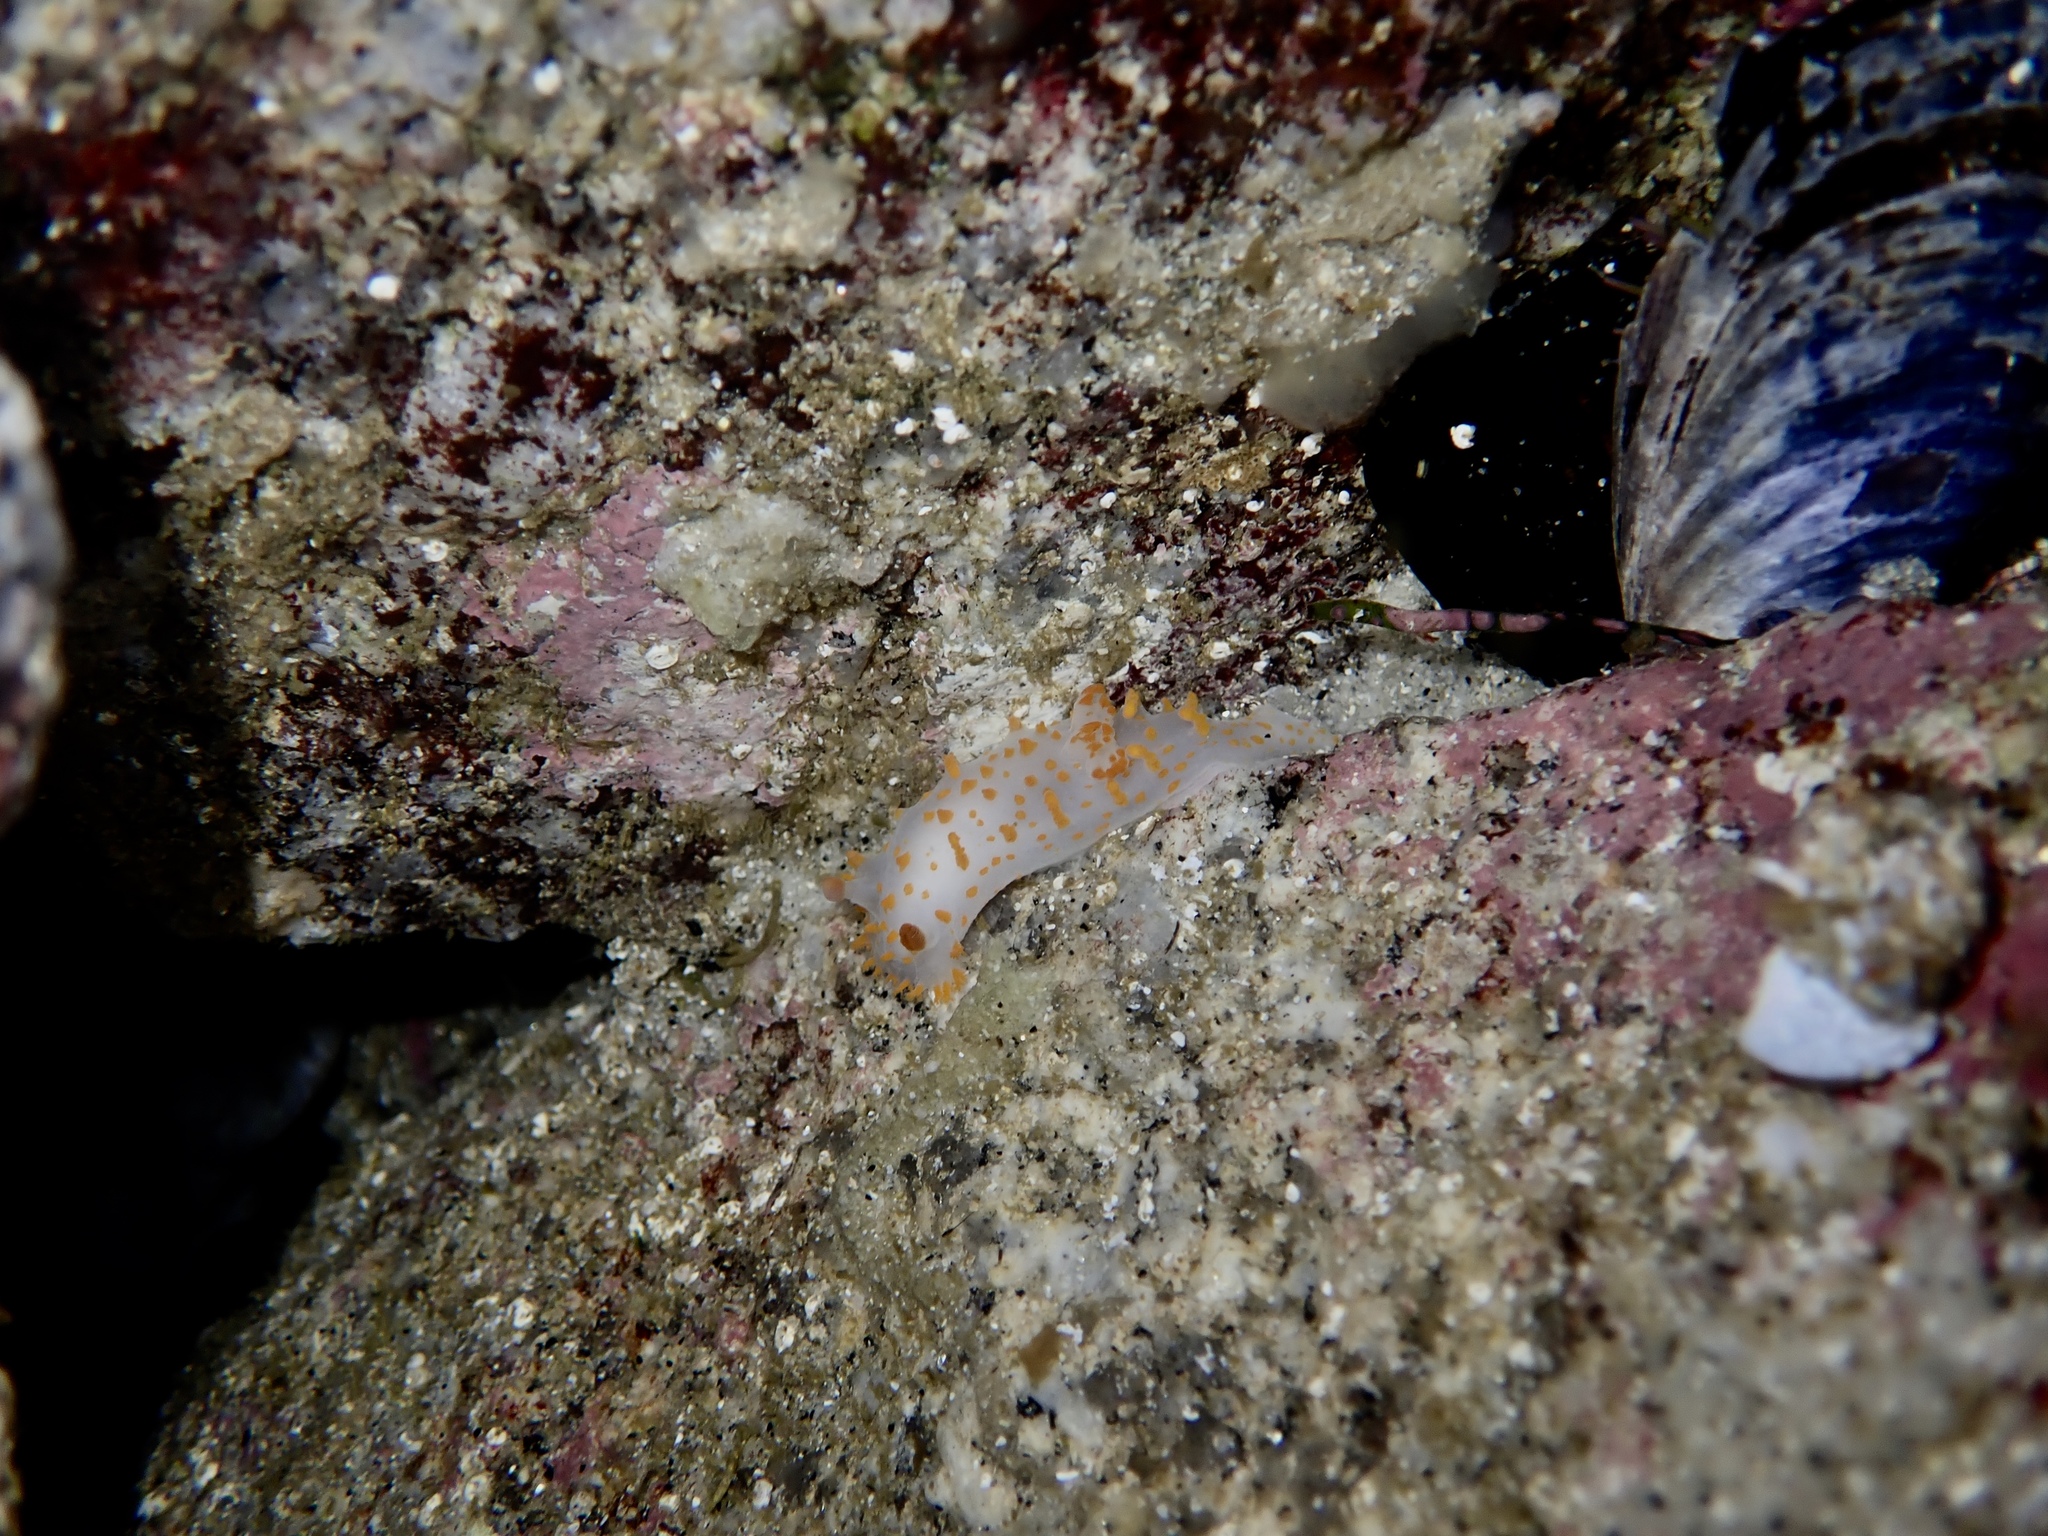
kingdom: Animalia
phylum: Mollusca
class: Gastropoda
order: Nudibranchia
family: Polyceridae
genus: Triopha
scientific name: Triopha catalinae
